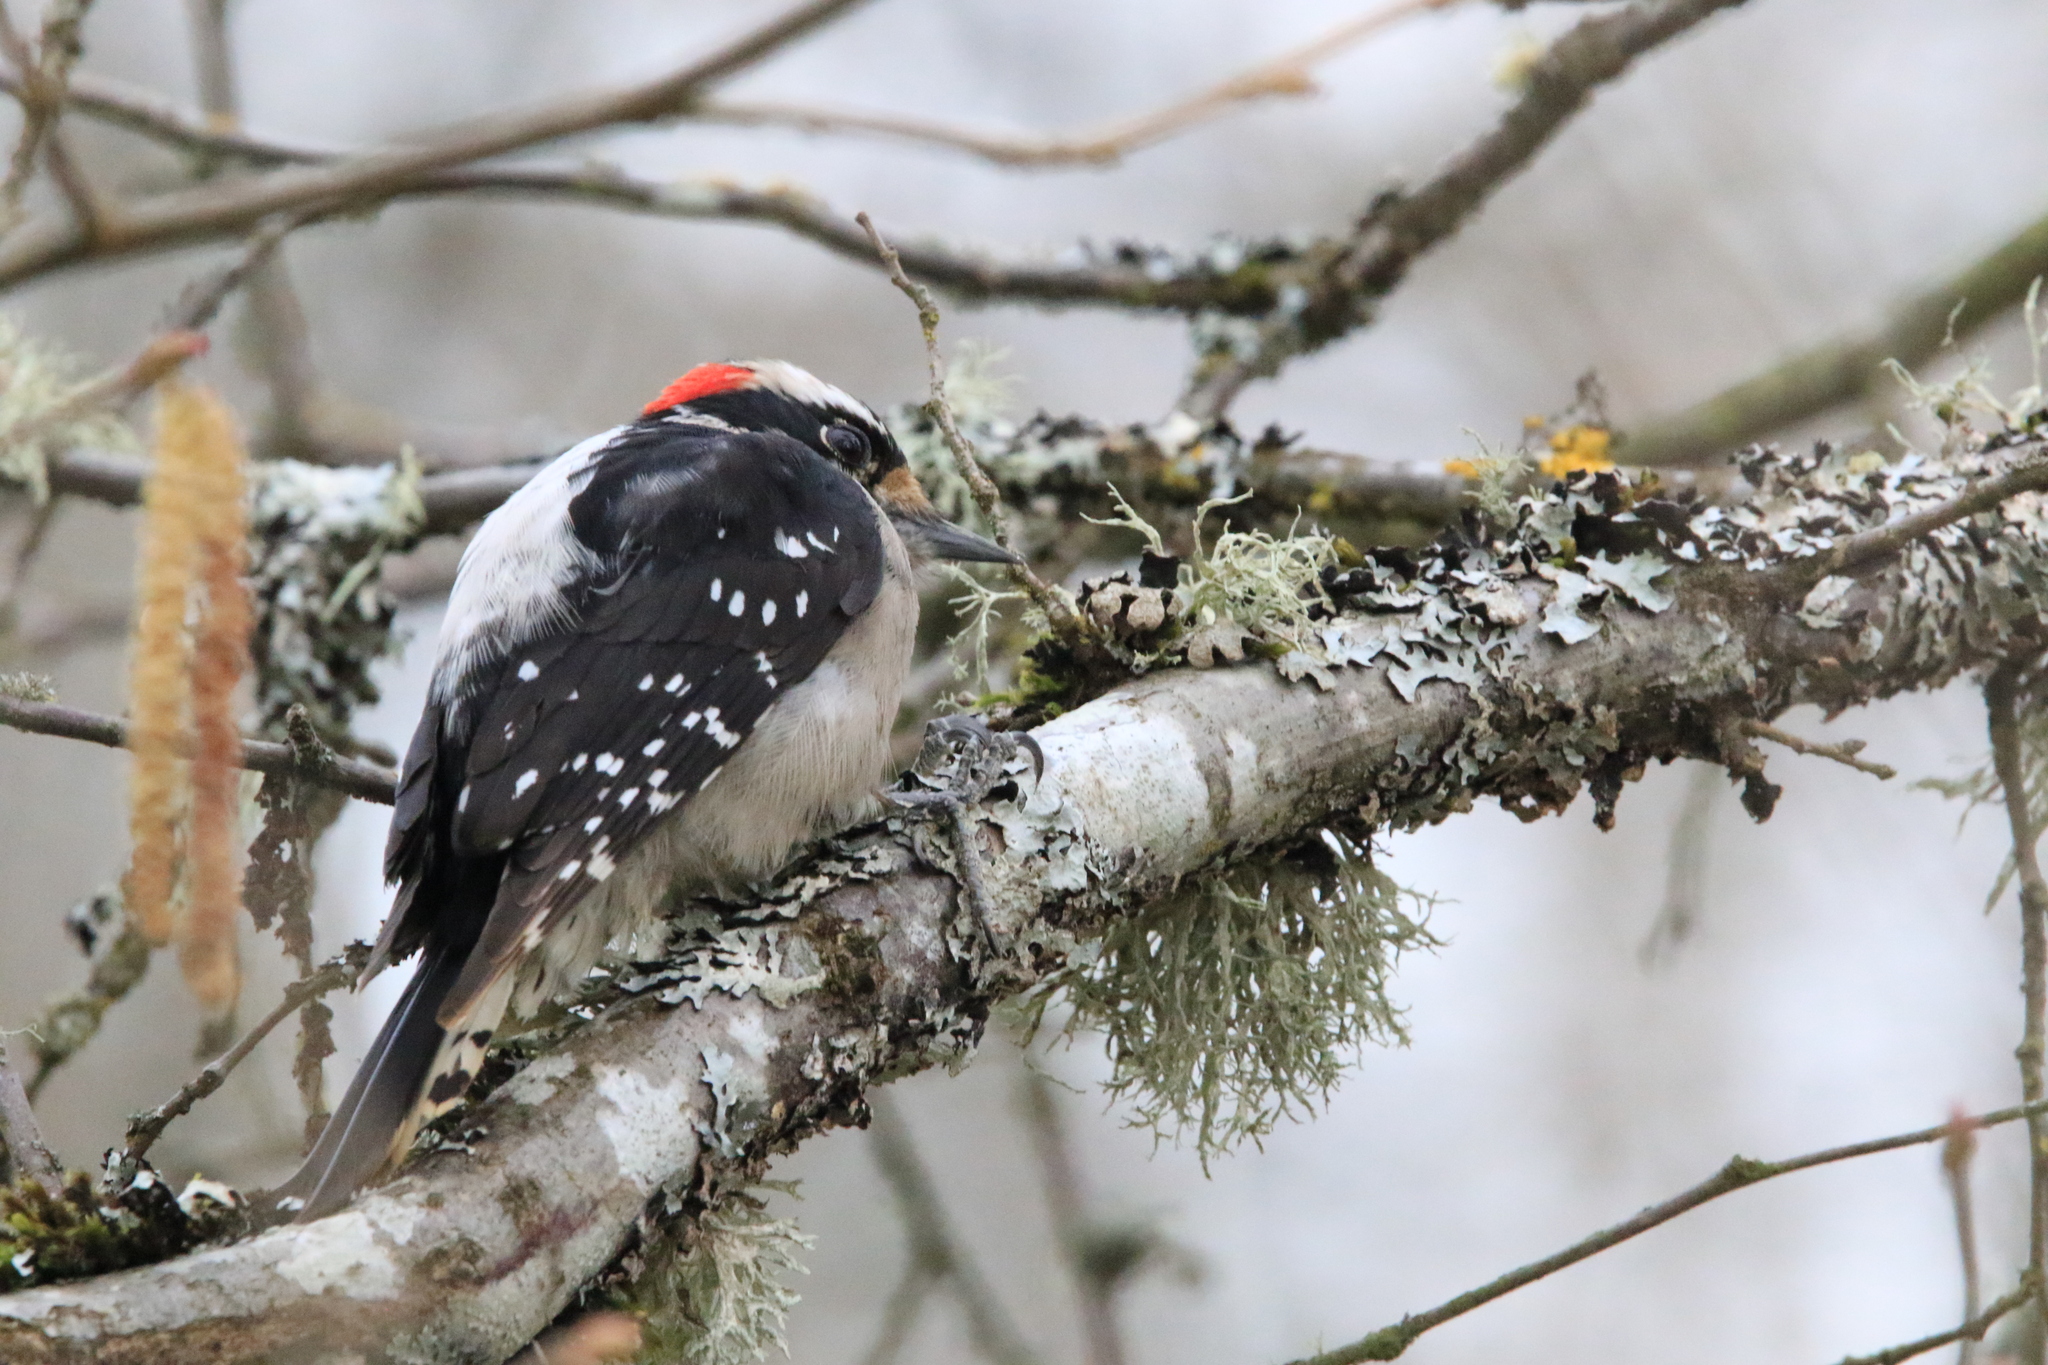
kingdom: Animalia
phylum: Chordata
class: Aves
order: Piciformes
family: Picidae
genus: Dryobates
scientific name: Dryobates pubescens
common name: Downy woodpecker
